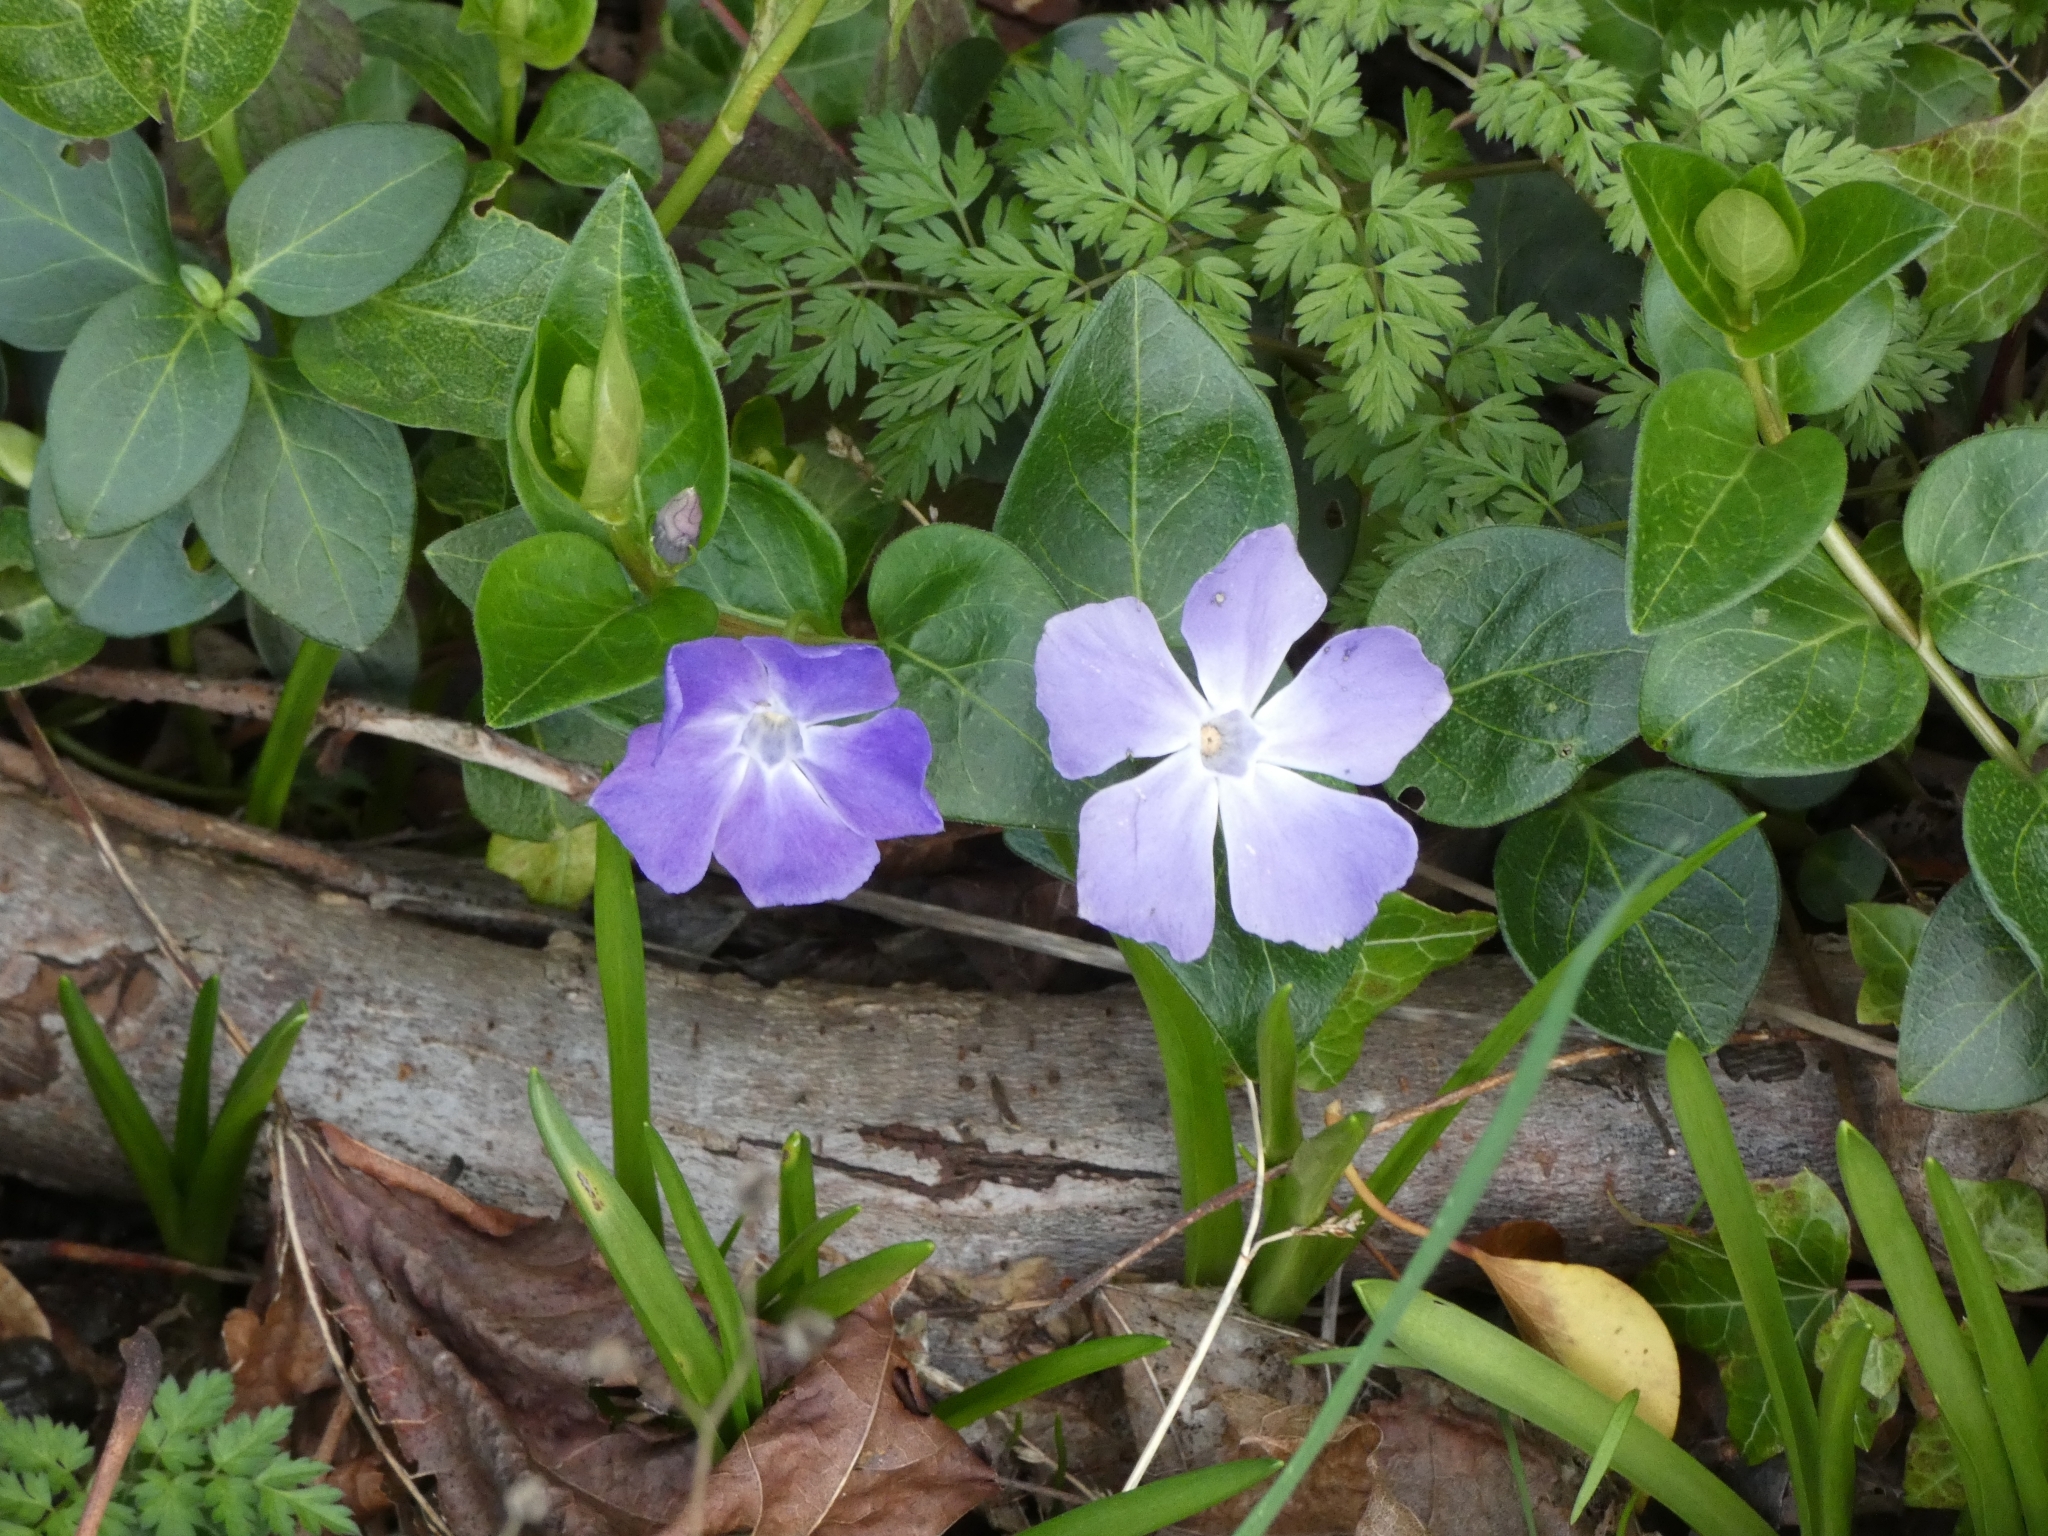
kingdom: Plantae
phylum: Tracheophyta
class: Magnoliopsida
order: Gentianales
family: Apocynaceae
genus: Vinca
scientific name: Vinca major
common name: Greater periwinkle
